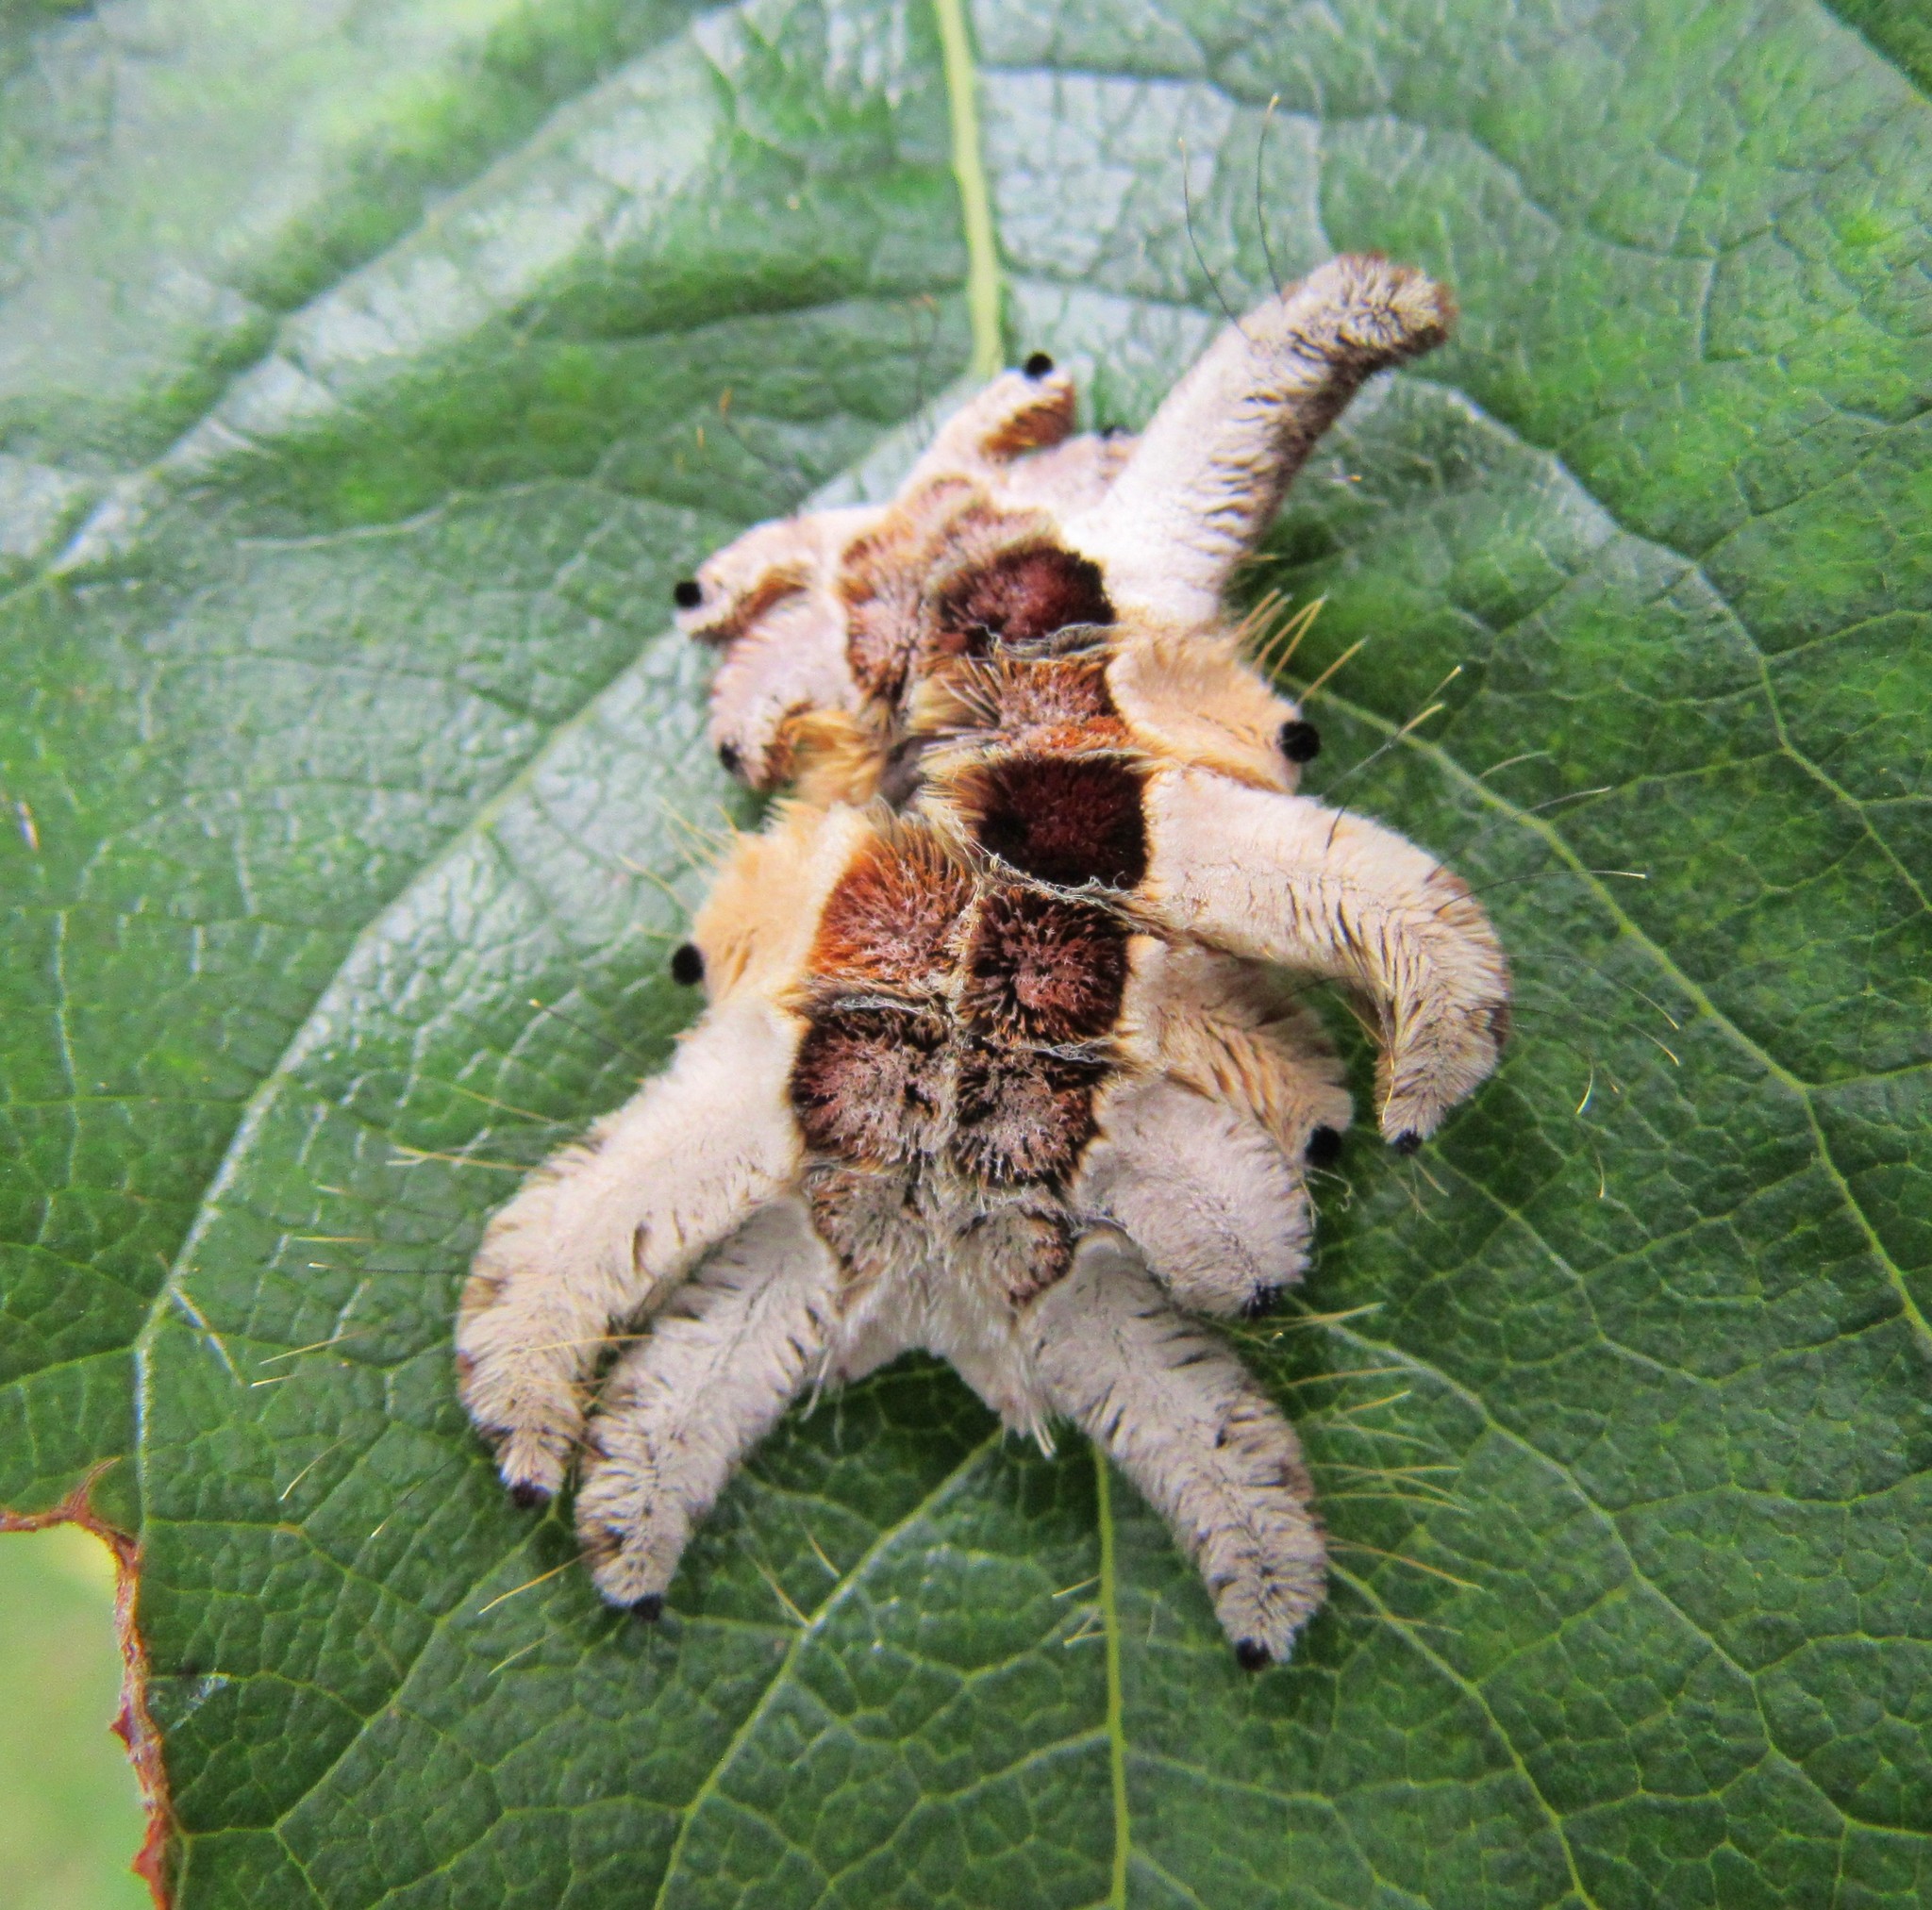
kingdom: Animalia
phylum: Arthropoda
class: Insecta
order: Lepidoptera
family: Limacodidae
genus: Phobetron
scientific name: Phobetron hipparchia
